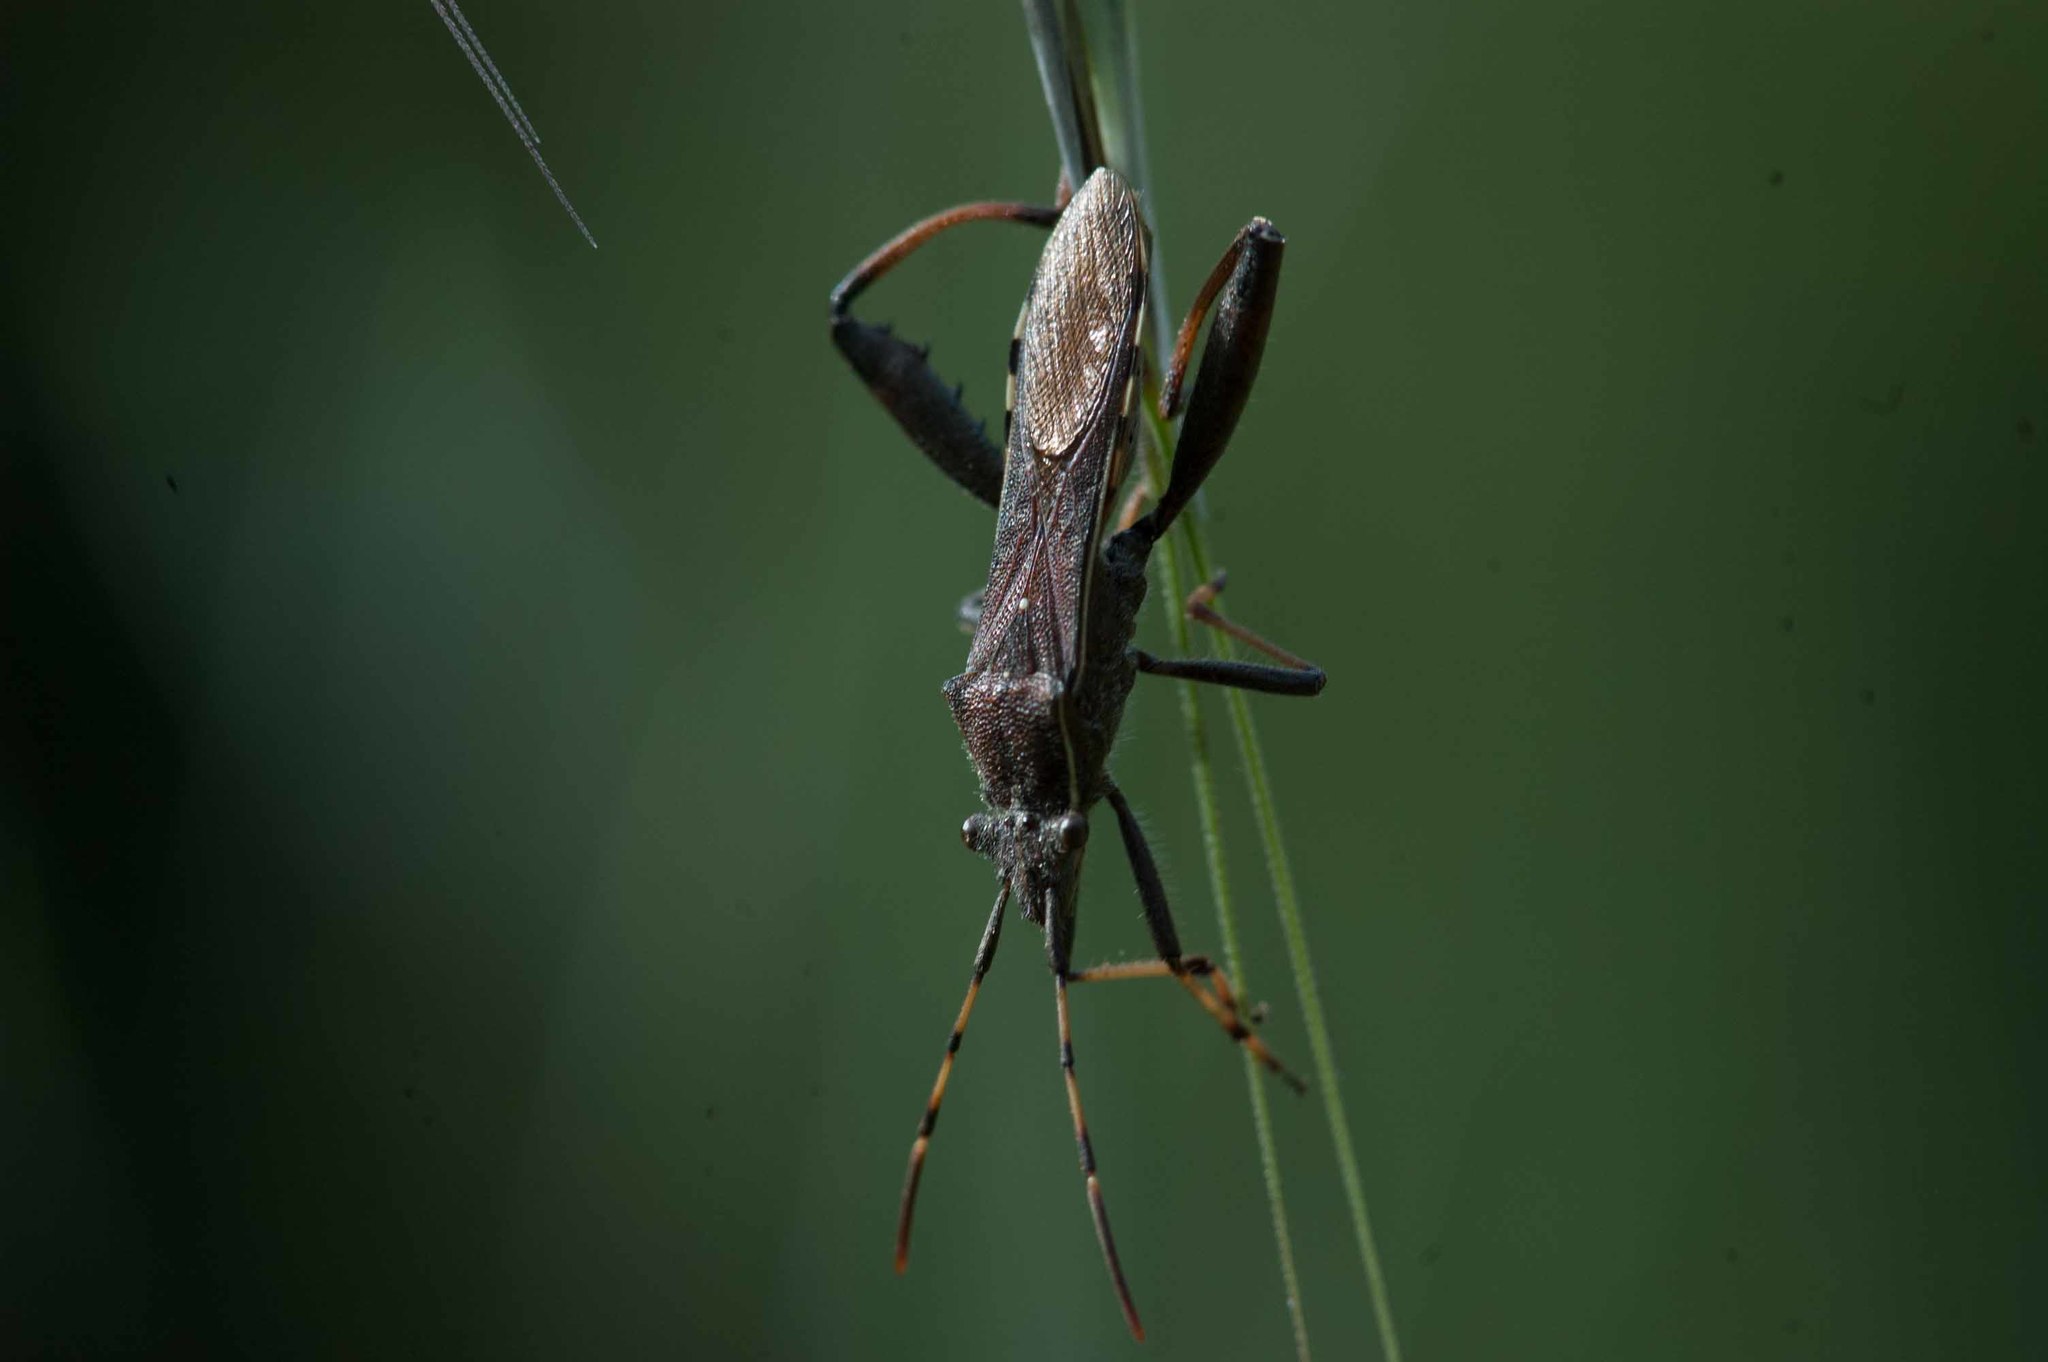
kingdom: Animalia
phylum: Arthropoda
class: Insecta
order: Hemiptera
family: Alydidae
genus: Camptopus
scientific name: Camptopus lateralis
